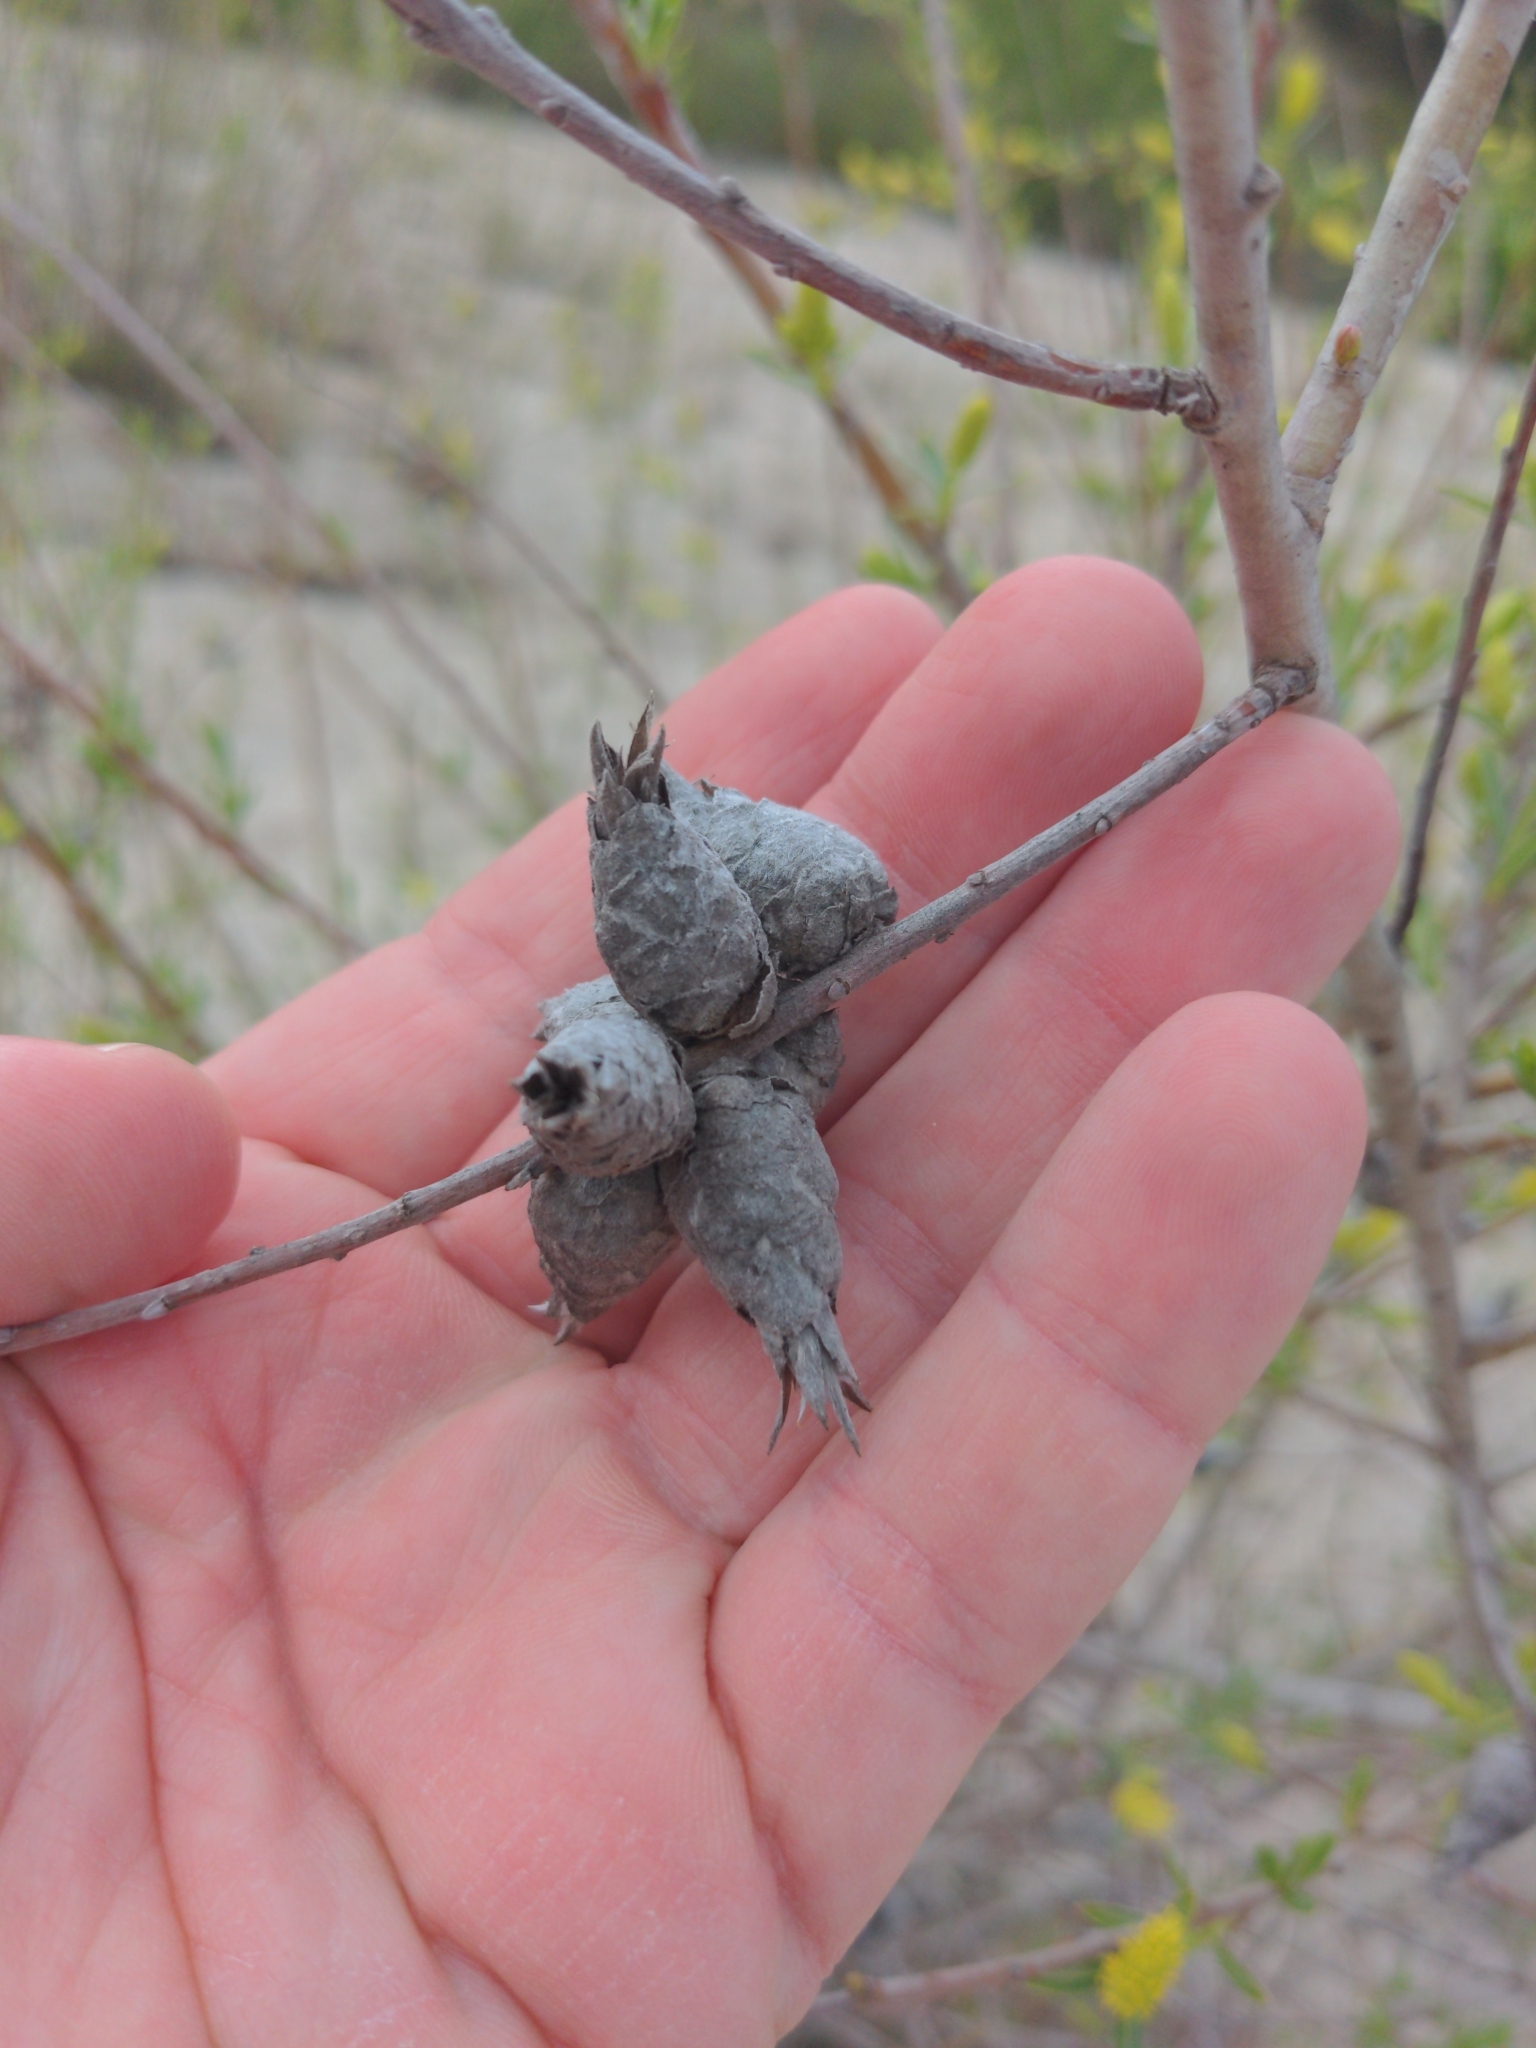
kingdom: Animalia
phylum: Arthropoda
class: Insecta
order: Diptera
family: Cecidomyiidae
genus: Rabdophaga
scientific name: Rabdophaga strobiloides
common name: Willow pinecone gall midge
